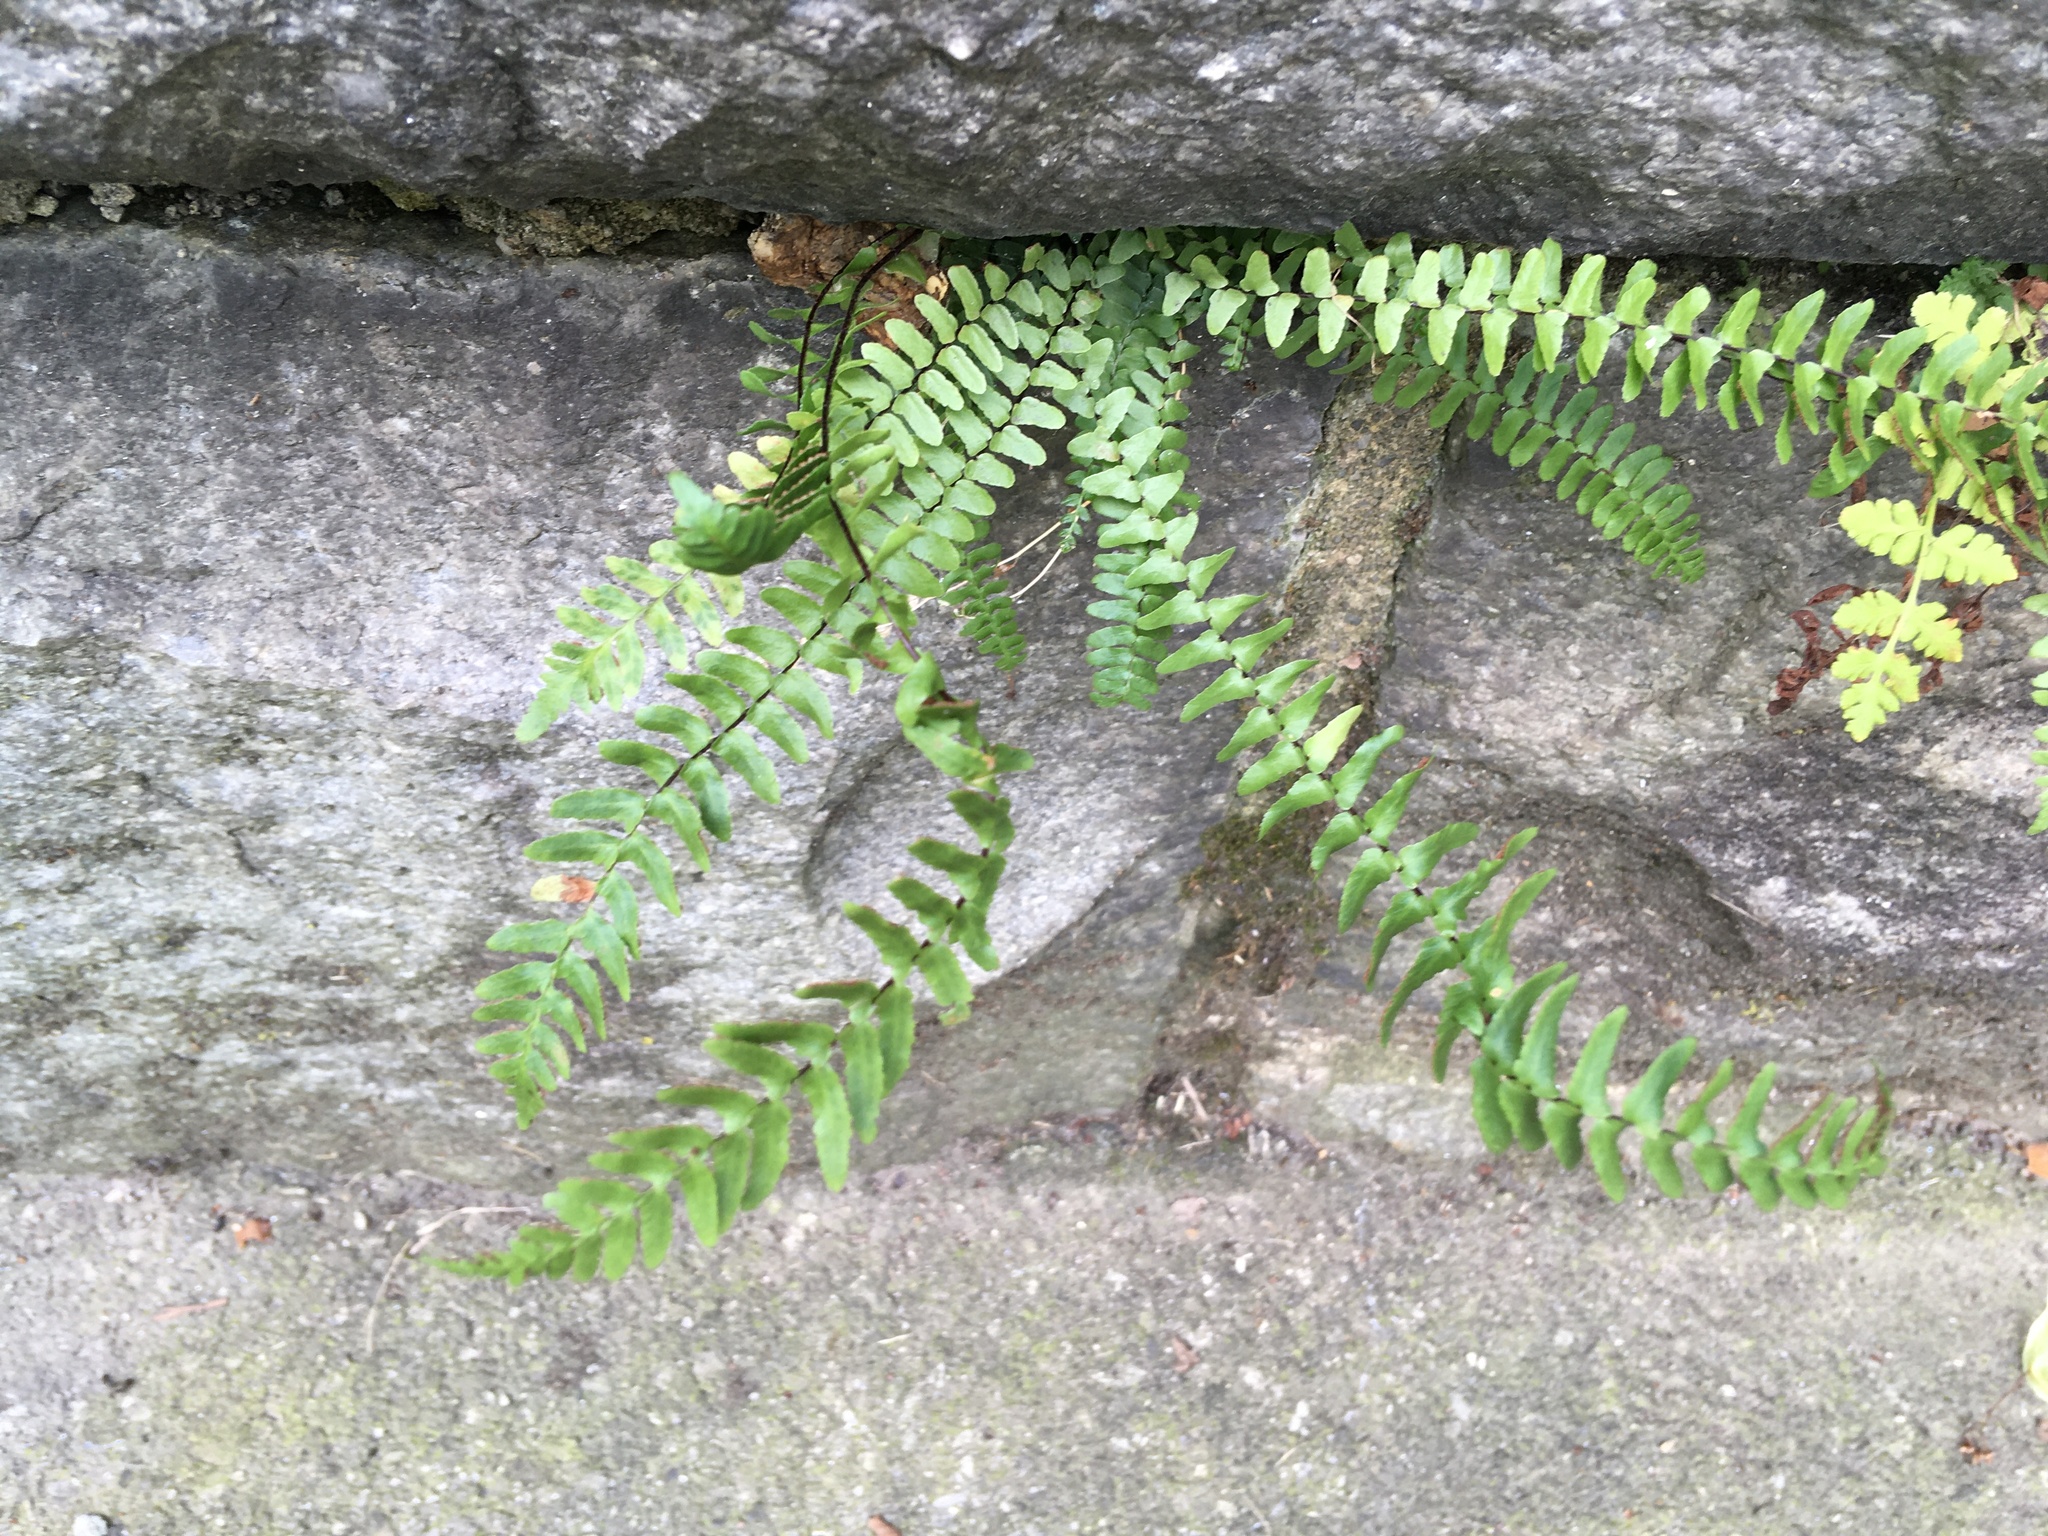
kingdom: Plantae
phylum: Tracheophyta
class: Polypodiopsida
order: Polypodiales
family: Aspleniaceae
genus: Asplenium
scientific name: Asplenium platyneuron
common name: Ebony spleenwort
